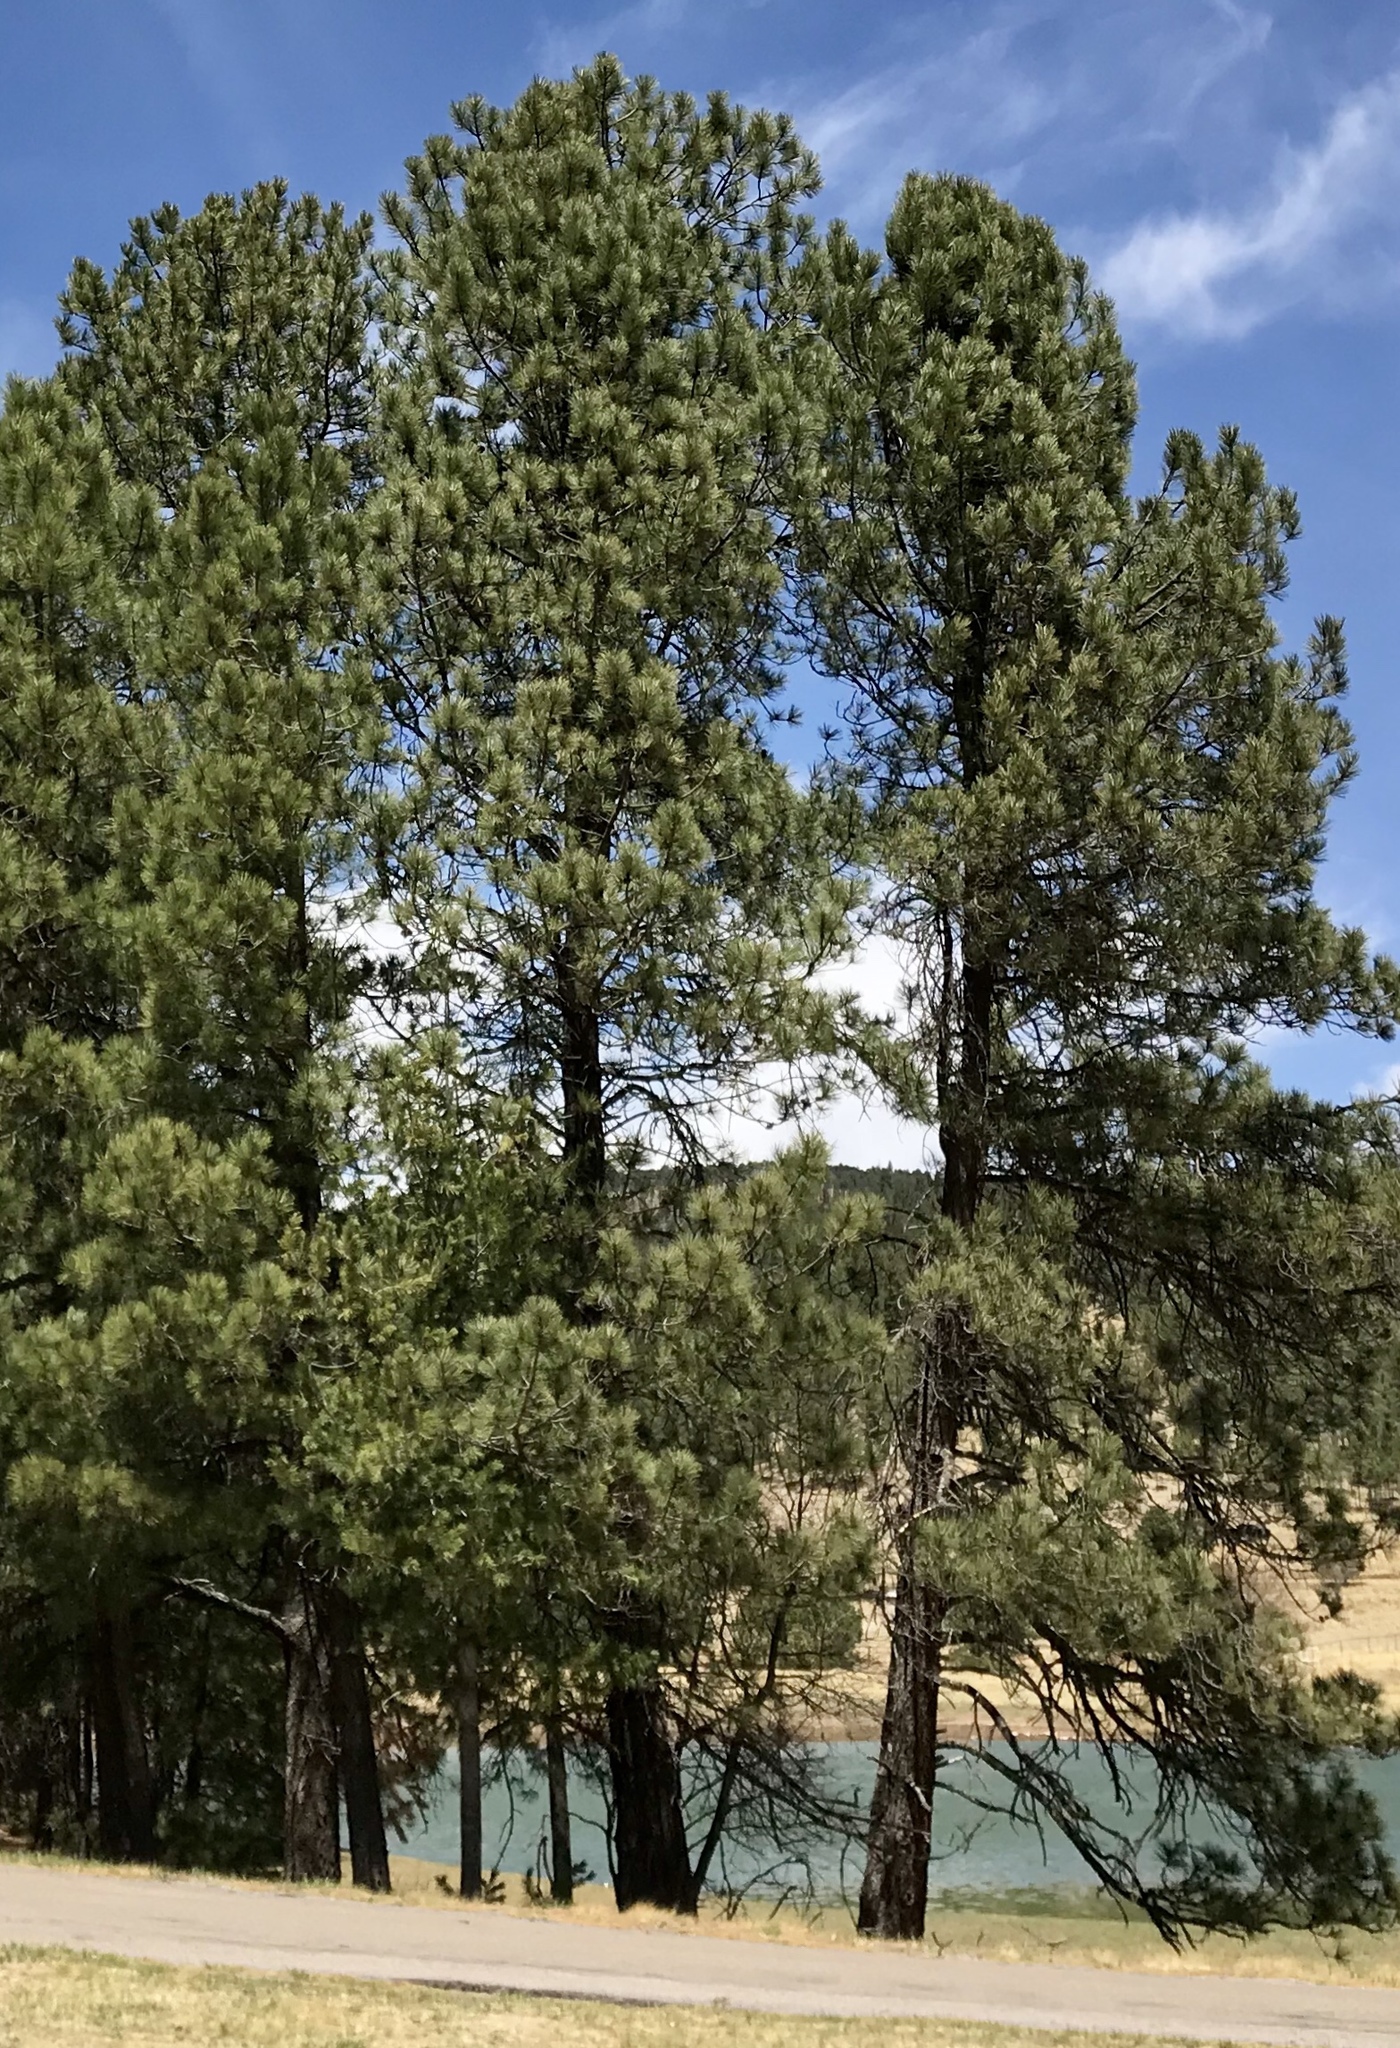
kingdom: Plantae
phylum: Tracheophyta
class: Pinopsida
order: Pinales
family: Pinaceae
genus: Pinus
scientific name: Pinus ponderosa
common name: Western yellow-pine
